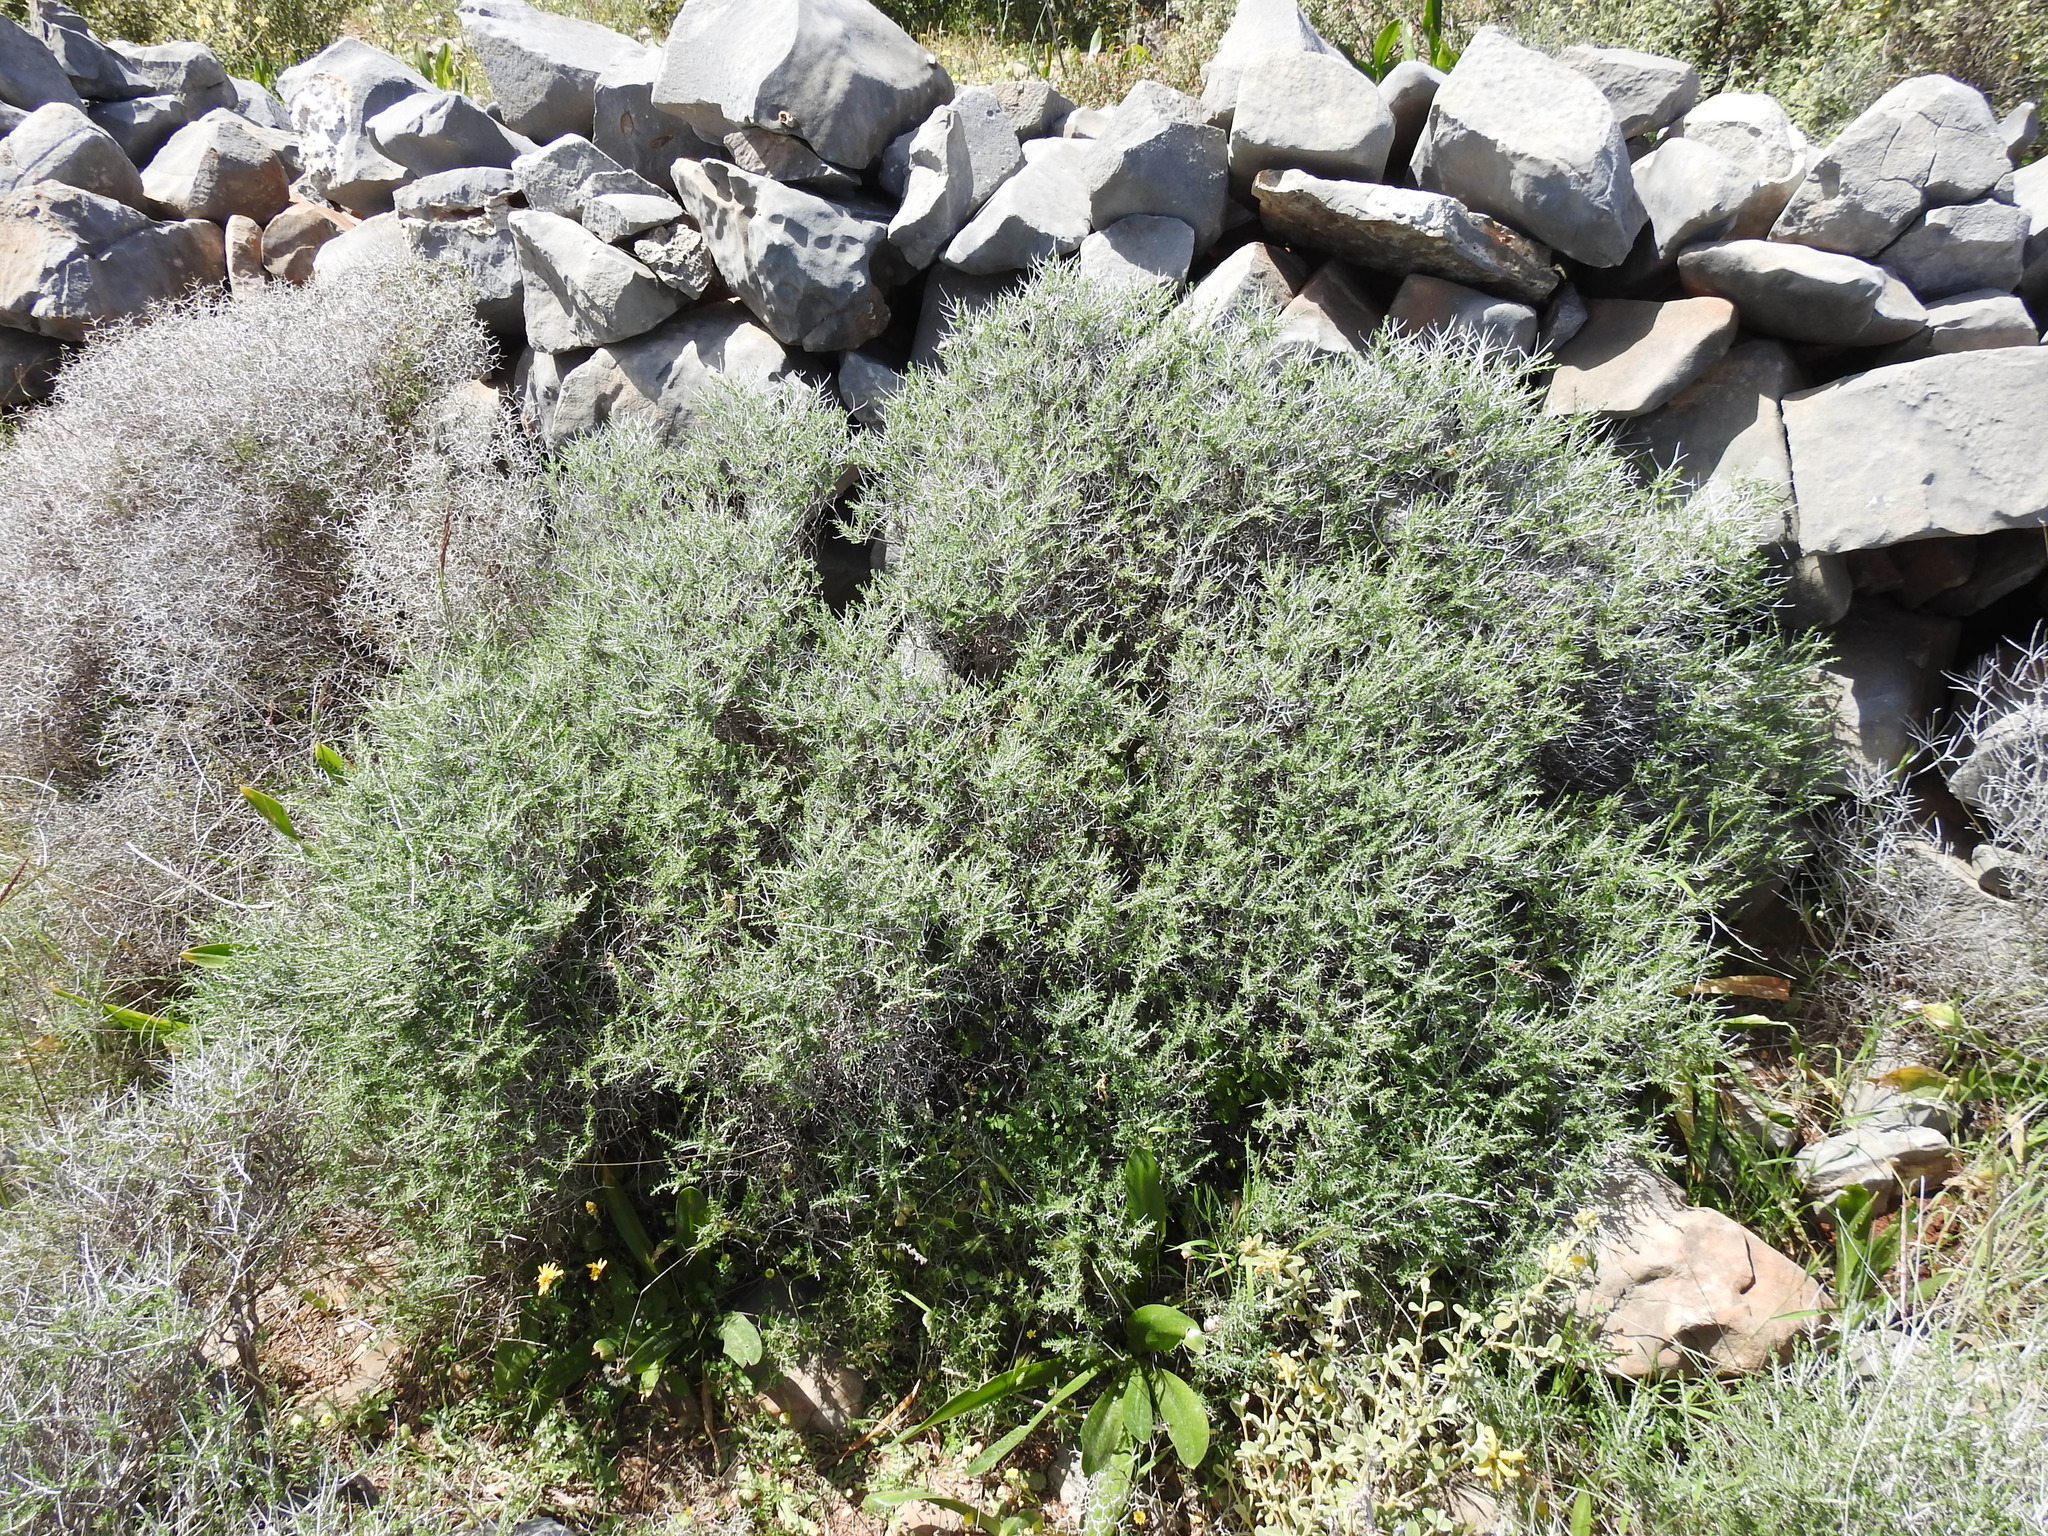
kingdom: Plantae
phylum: Tracheophyta
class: Magnoliopsida
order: Lamiales
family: Lamiaceae
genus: Thymbra
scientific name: Thymbra capitata
